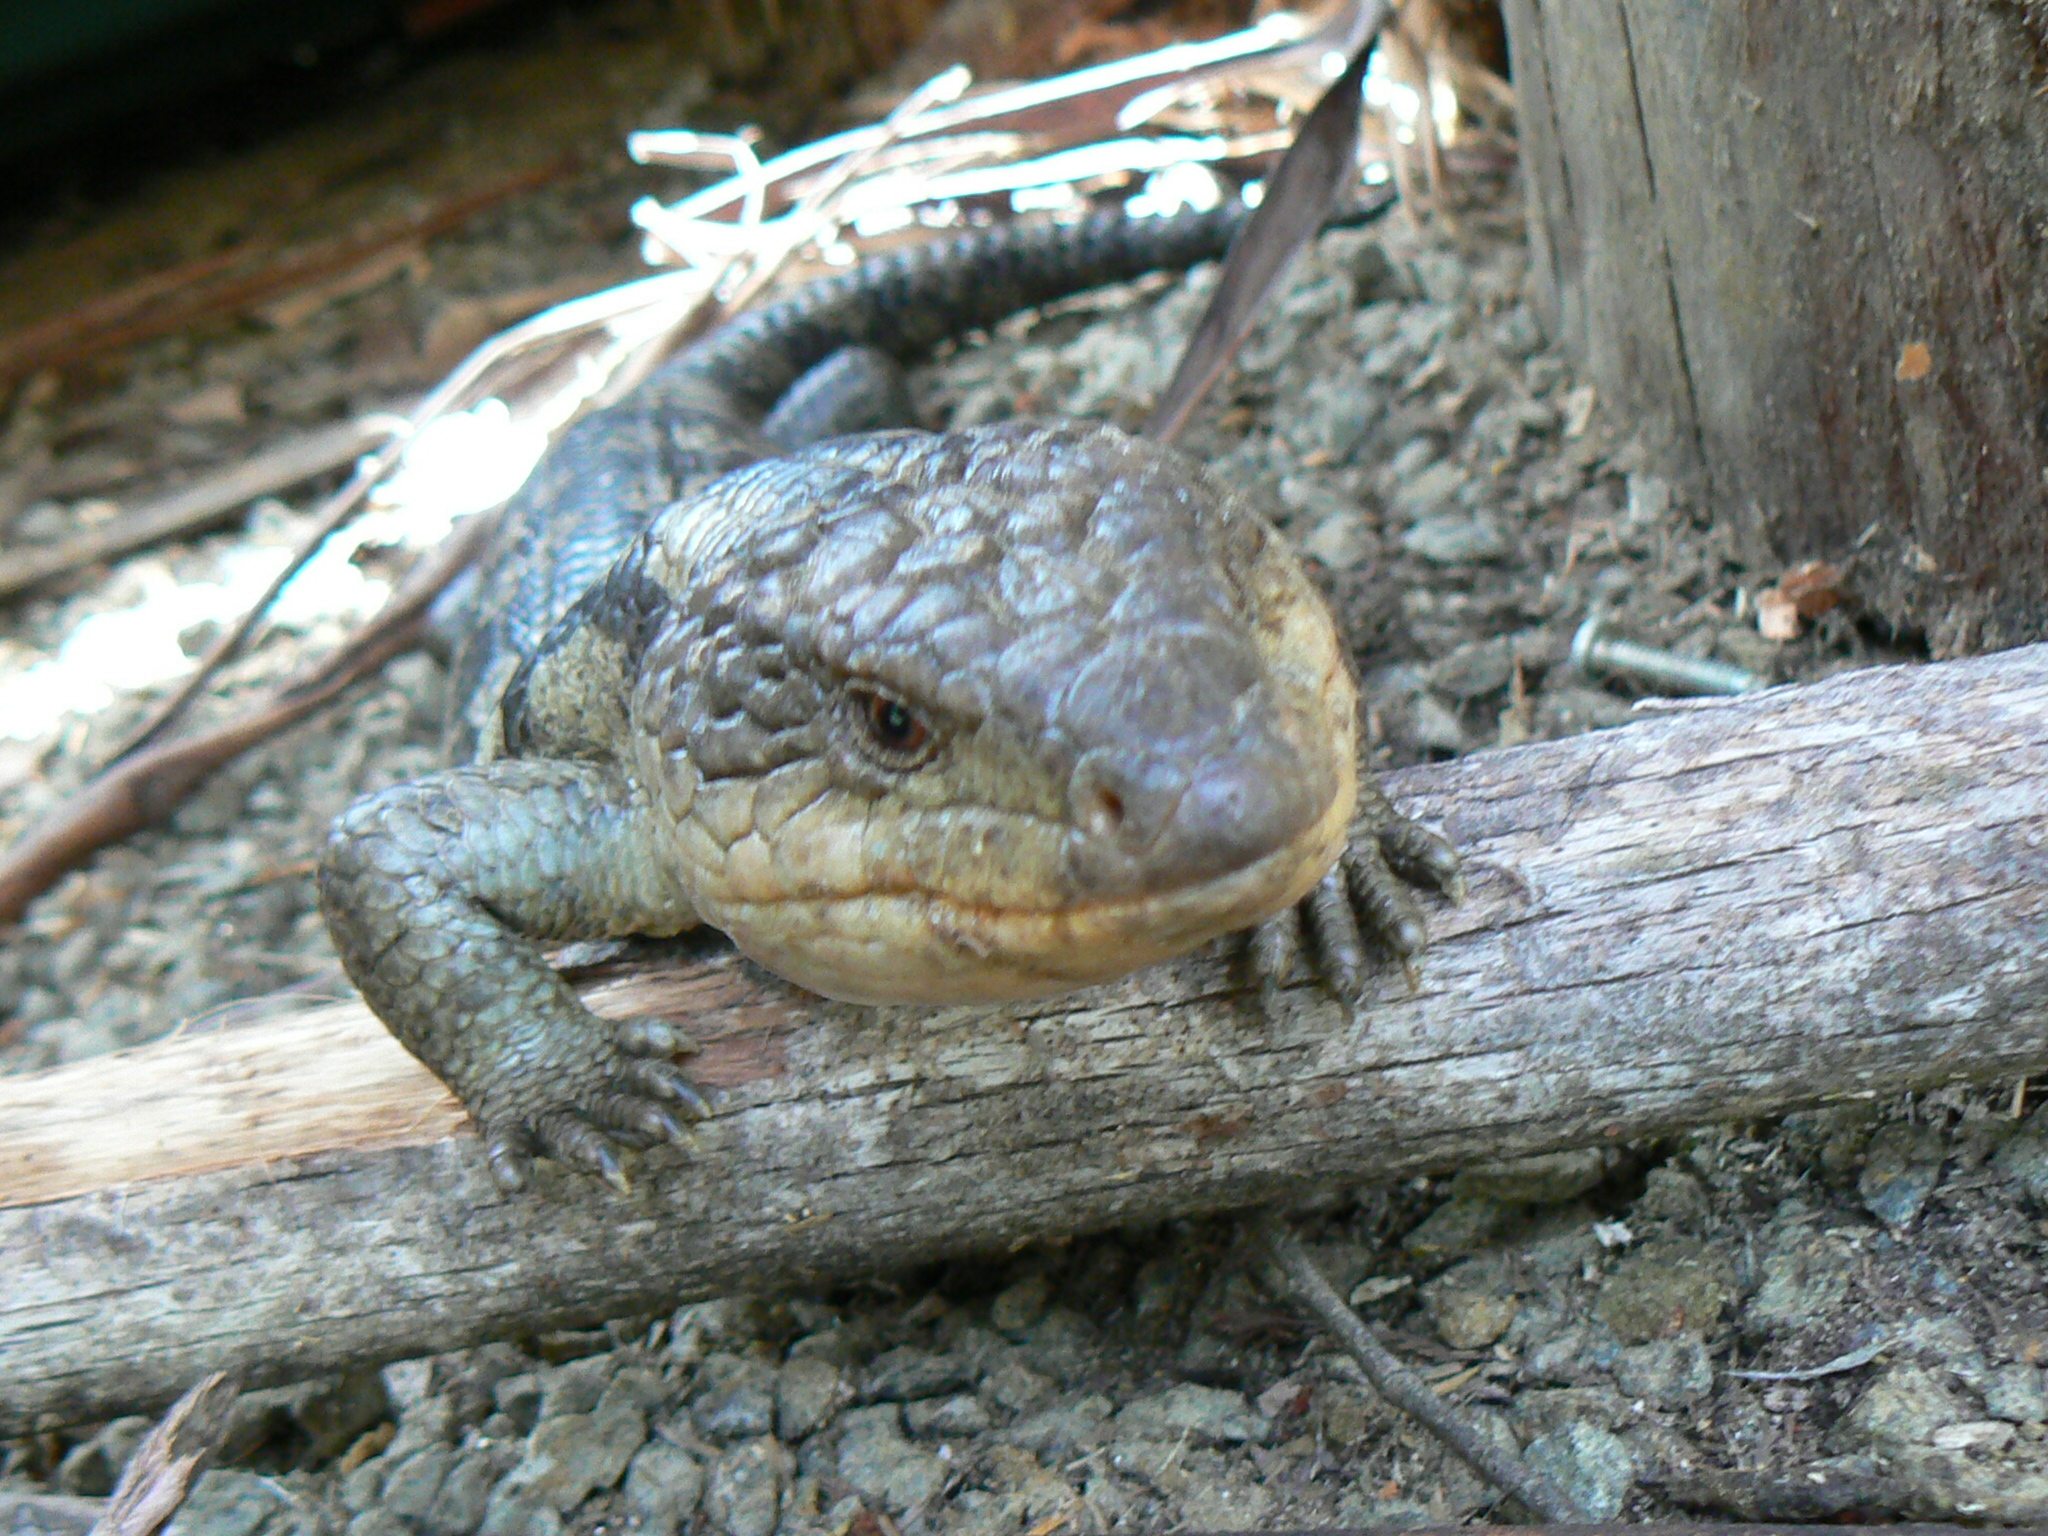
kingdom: Animalia
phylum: Chordata
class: Squamata
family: Scincidae
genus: Tiliqua
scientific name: Tiliqua nigrolutea
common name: Blotched blue-tongued lizard
